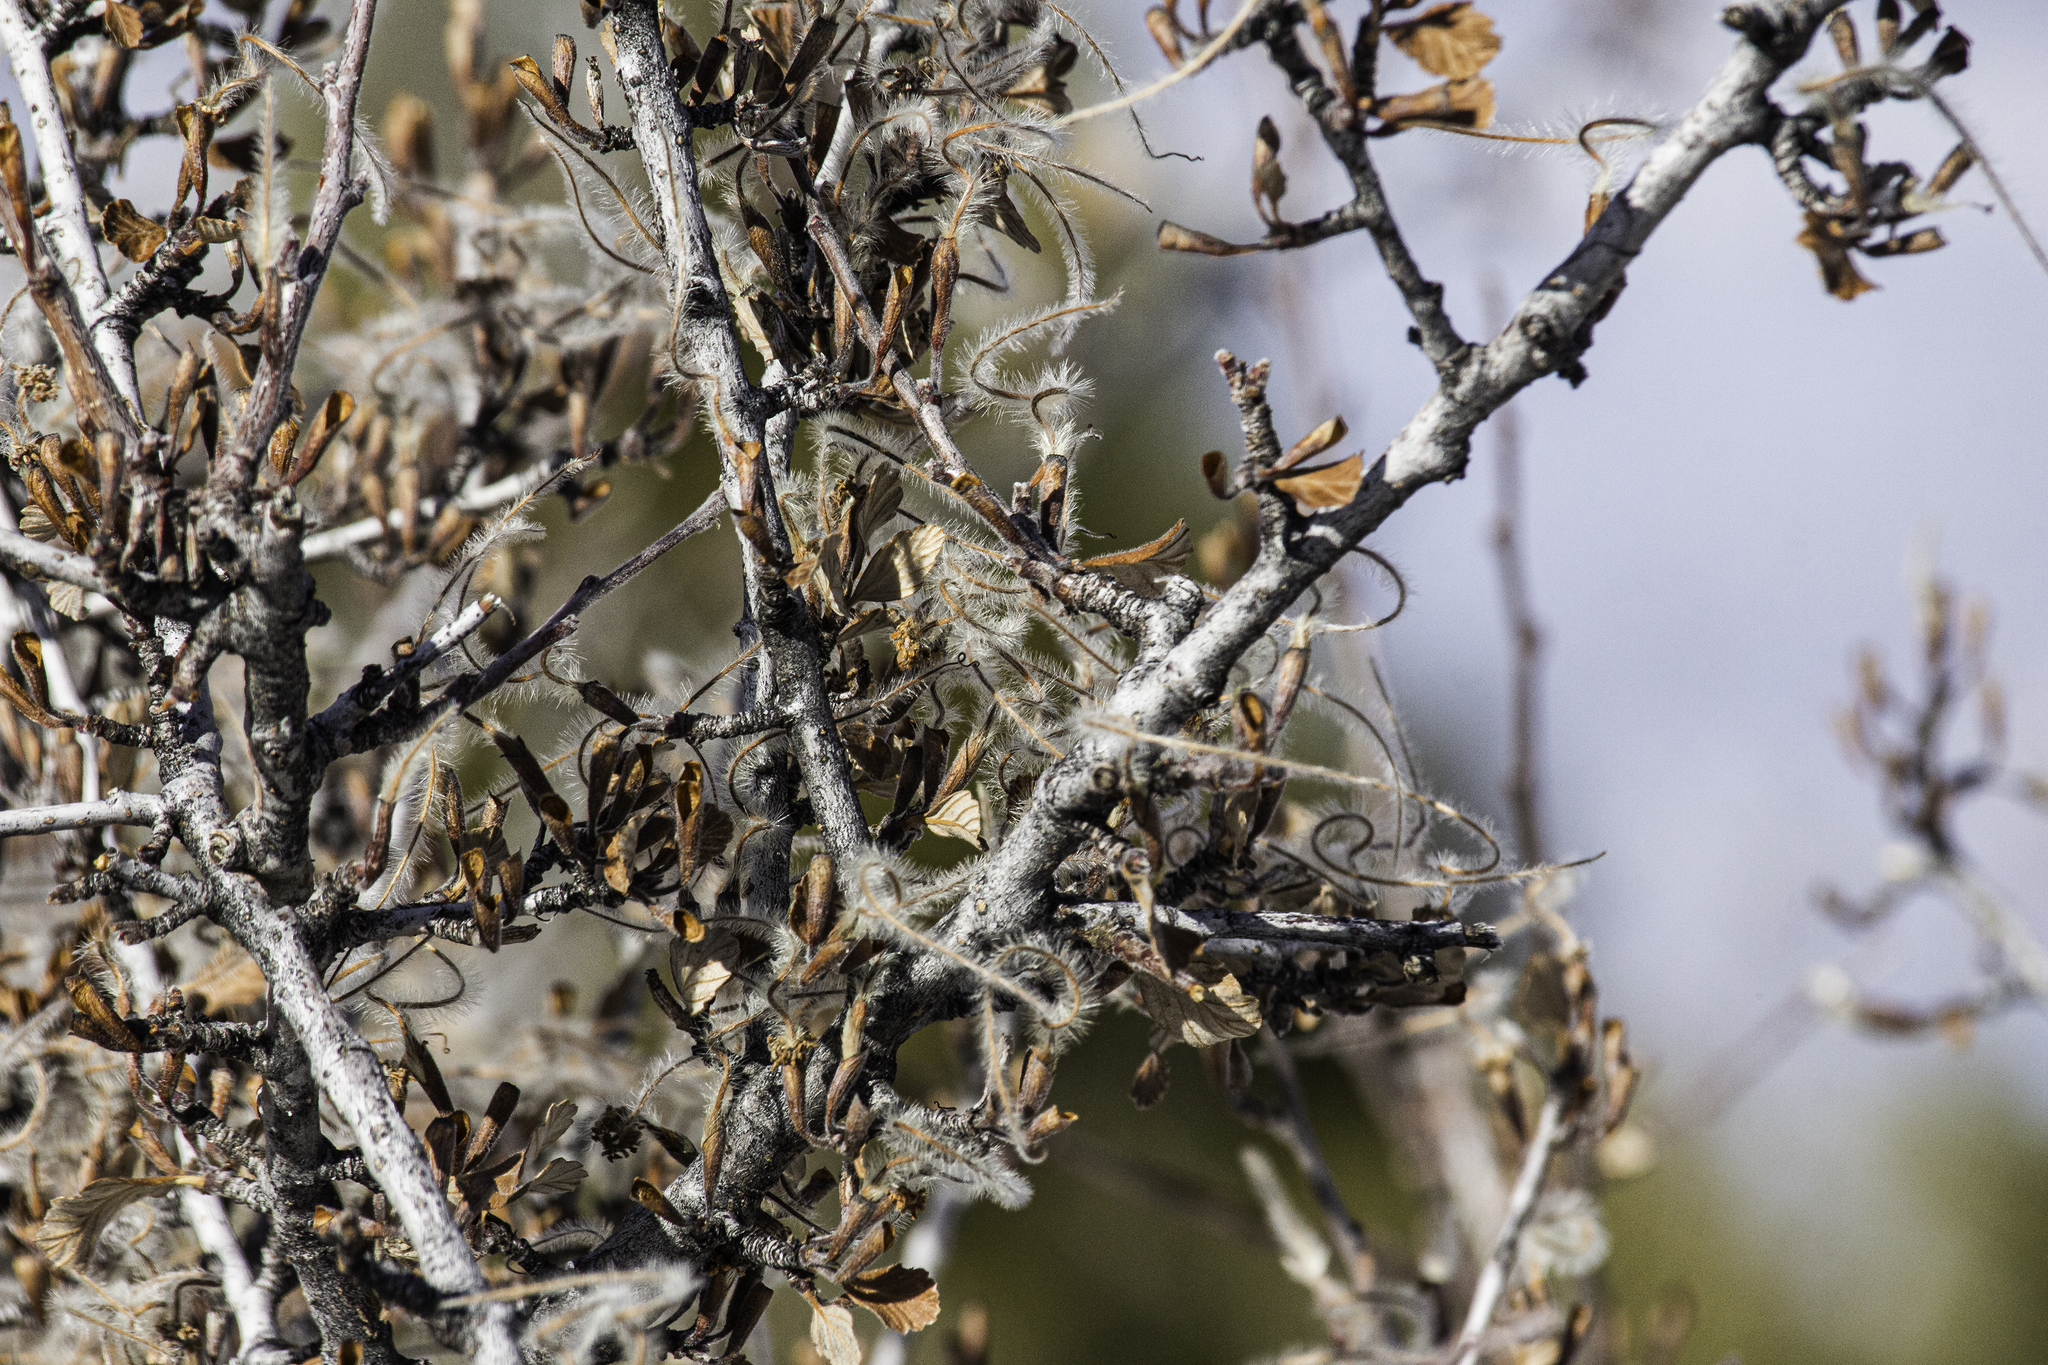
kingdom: Plantae
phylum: Tracheophyta
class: Magnoliopsida
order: Rosales
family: Rosaceae
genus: Cercocarpus
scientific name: Cercocarpus montanus
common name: Alder-leaf cercocarpus
